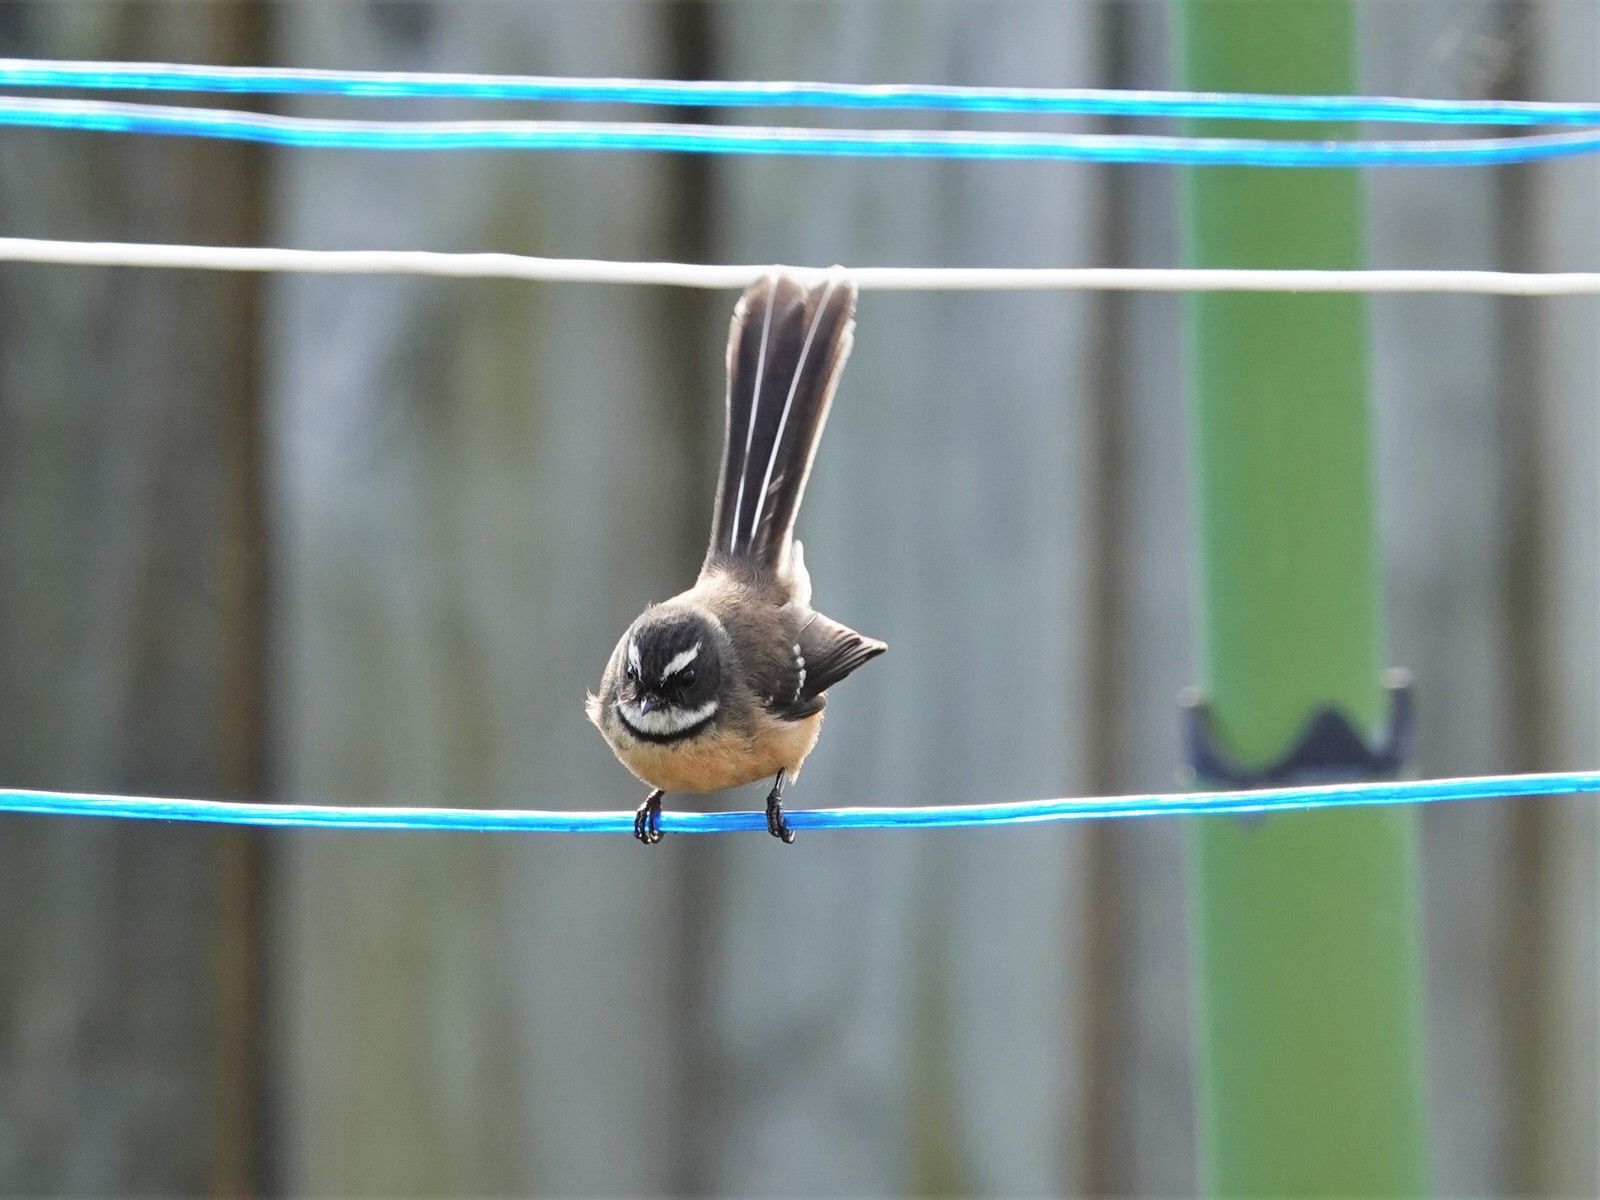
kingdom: Animalia
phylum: Chordata
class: Aves
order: Passeriformes
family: Rhipiduridae
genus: Rhipidura
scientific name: Rhipidura fuliginosa
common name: New zealand fantail
